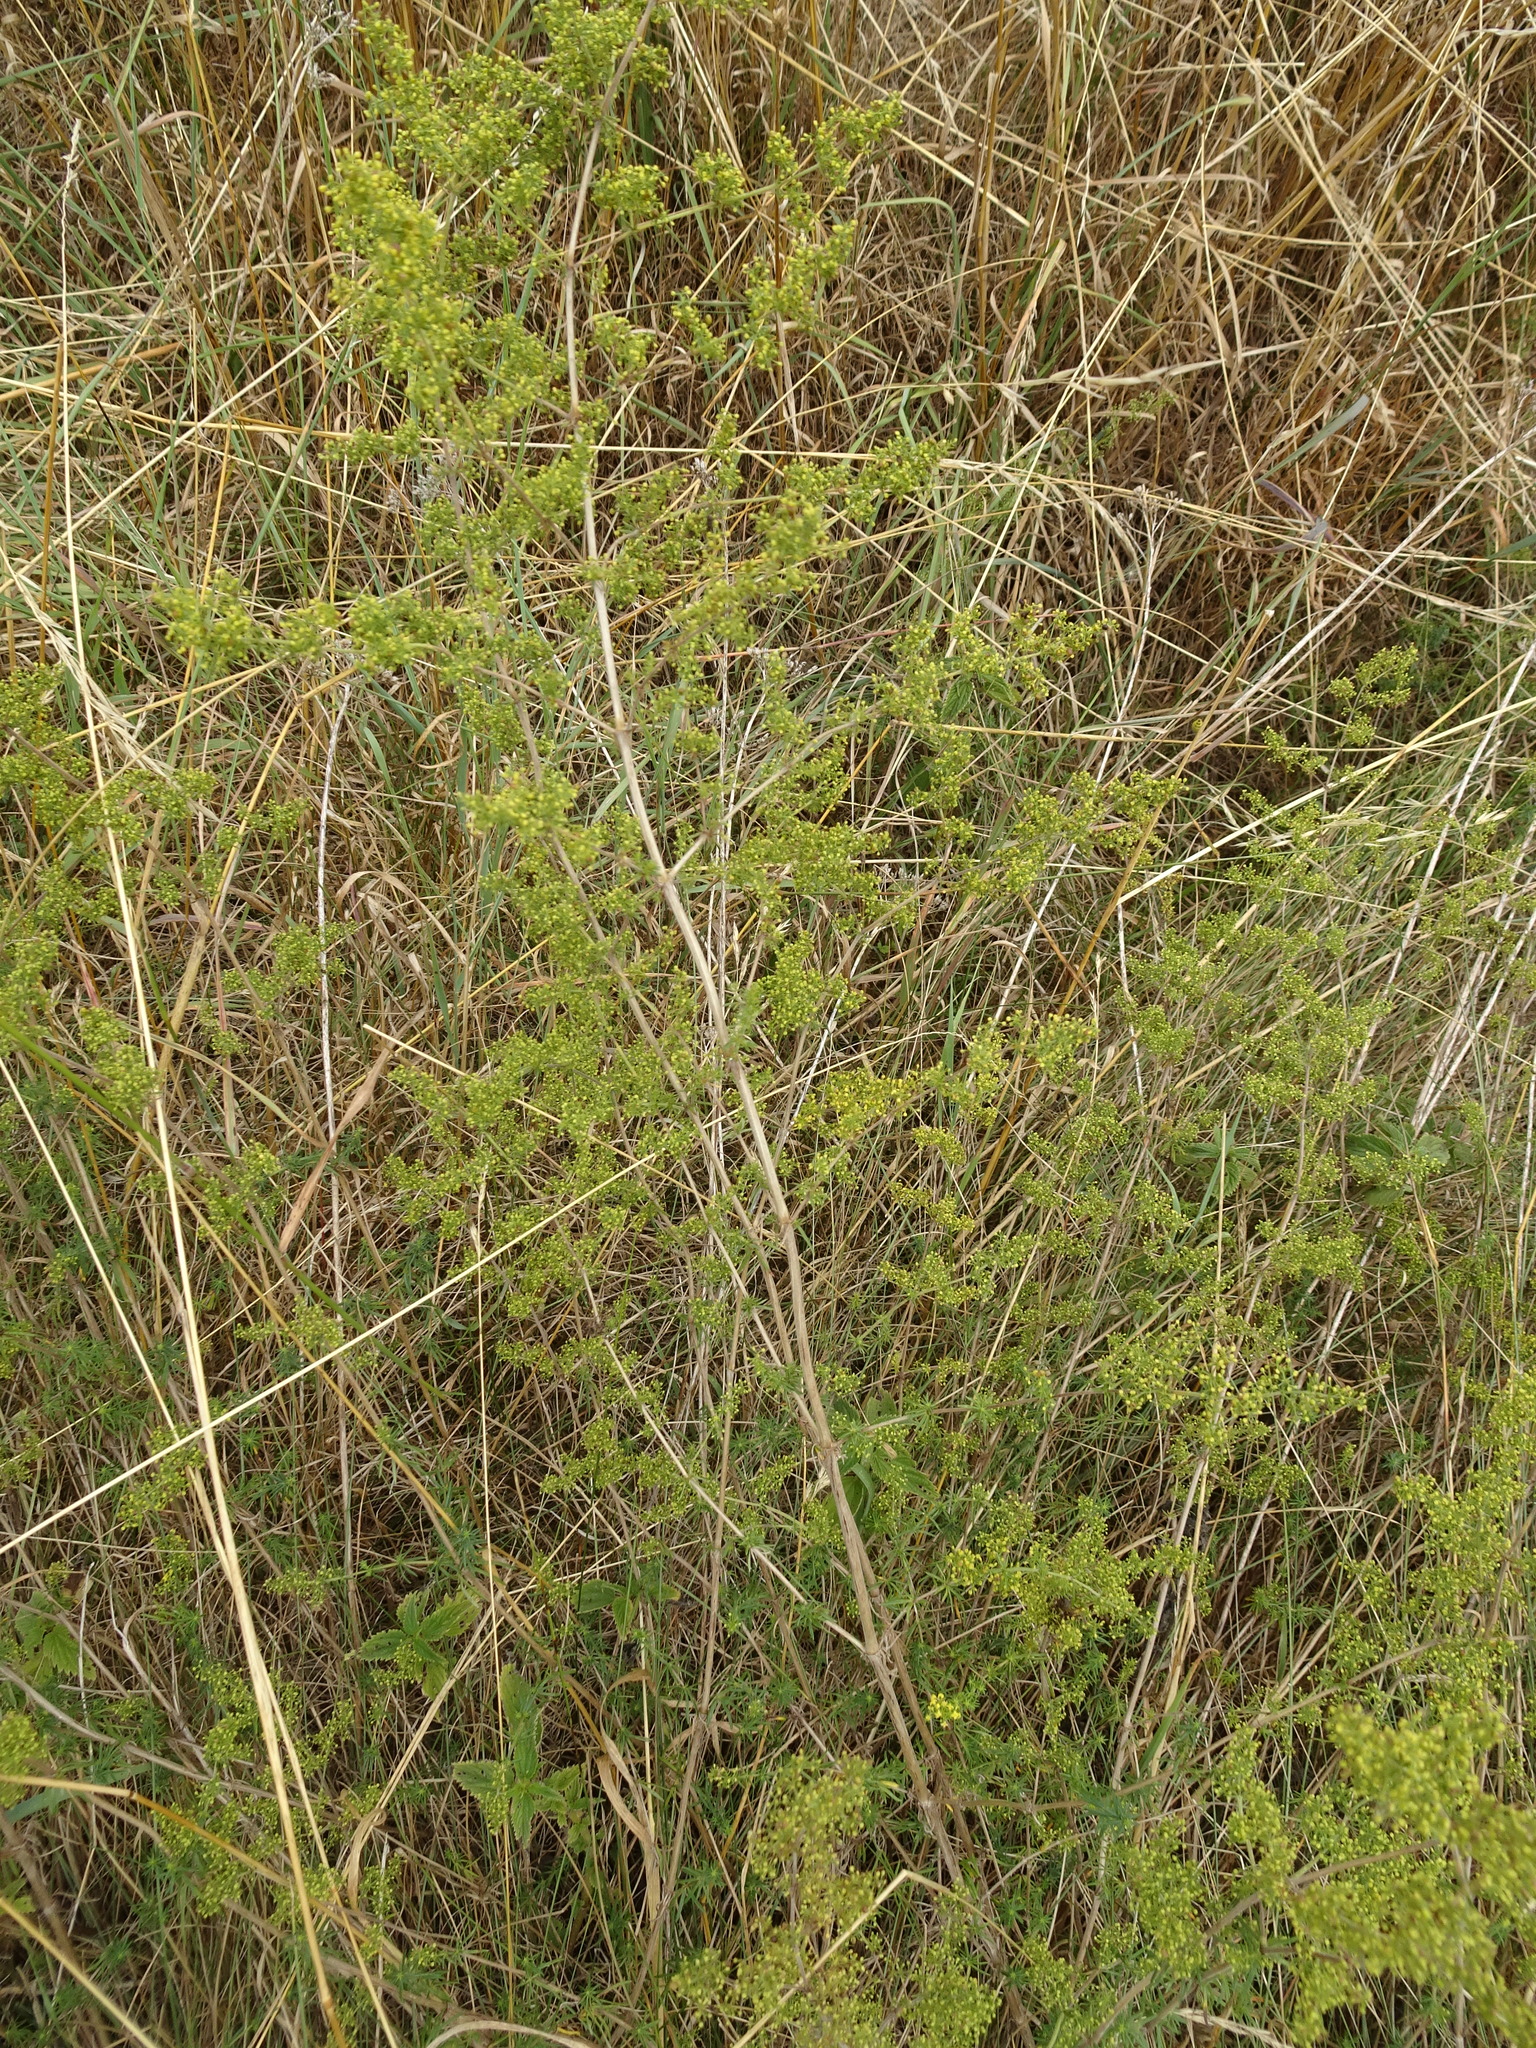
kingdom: Plantae
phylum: Tracheophyta
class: Magnoliopsida
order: Gentianales
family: Rubiaceae
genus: Galium
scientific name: Galium verum
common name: Lady's bedstraw
